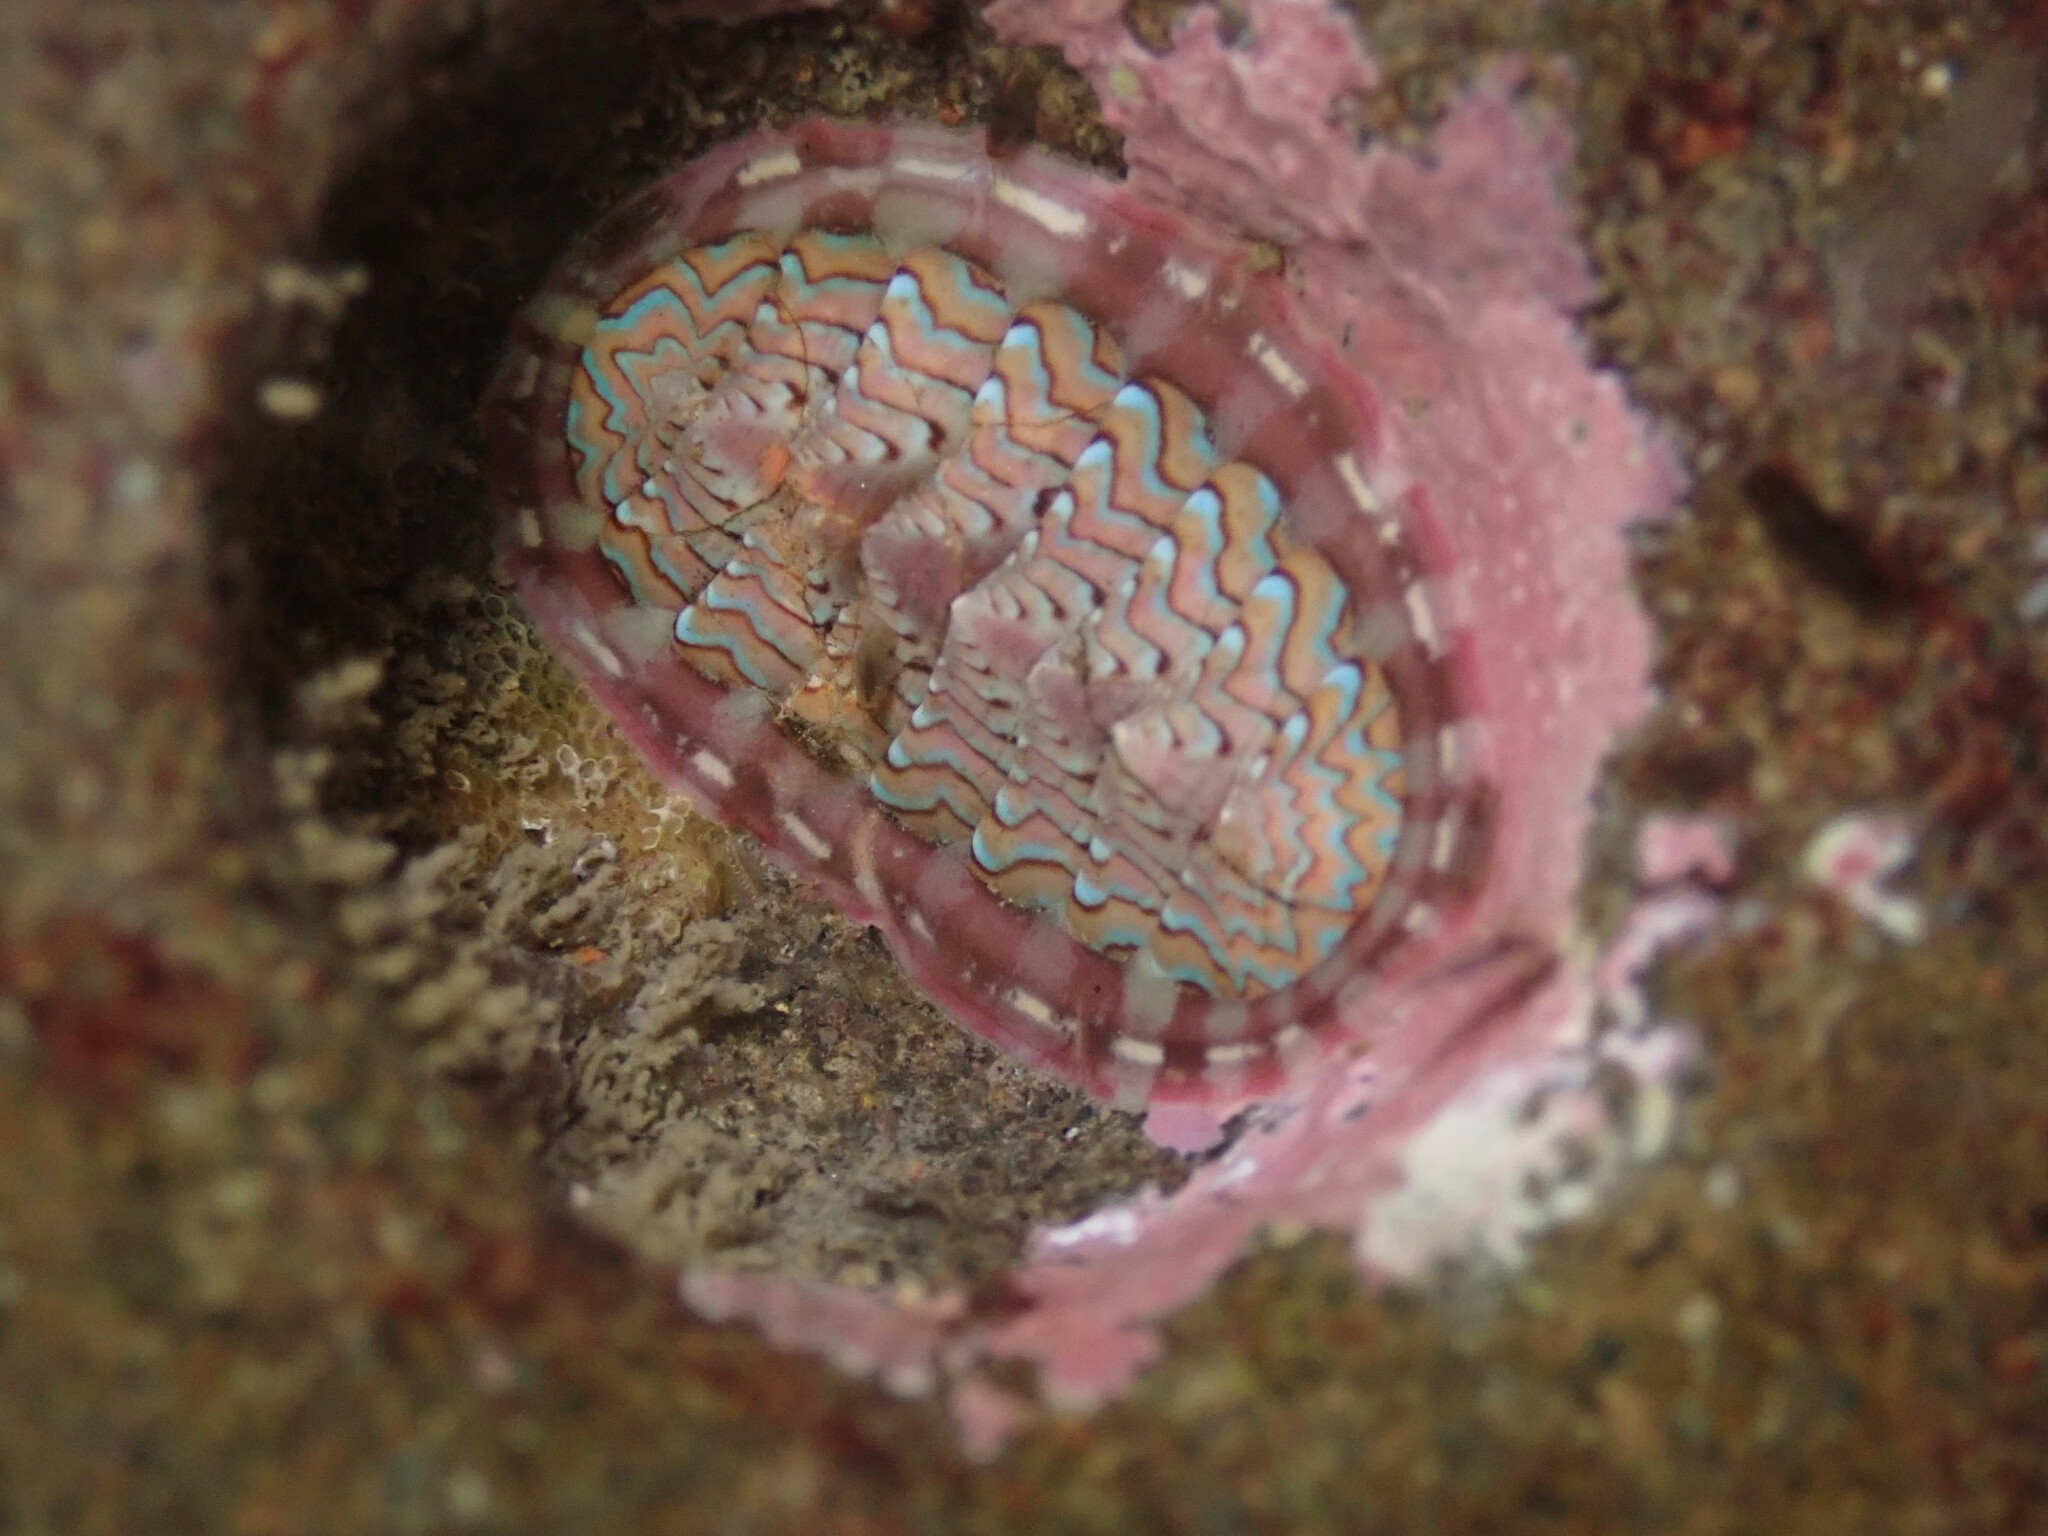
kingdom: Animalia
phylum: Mollusca
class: Polyplacophora
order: Chitonida
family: Tonicellidae
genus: Tonicella
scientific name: Tonicella lokii
